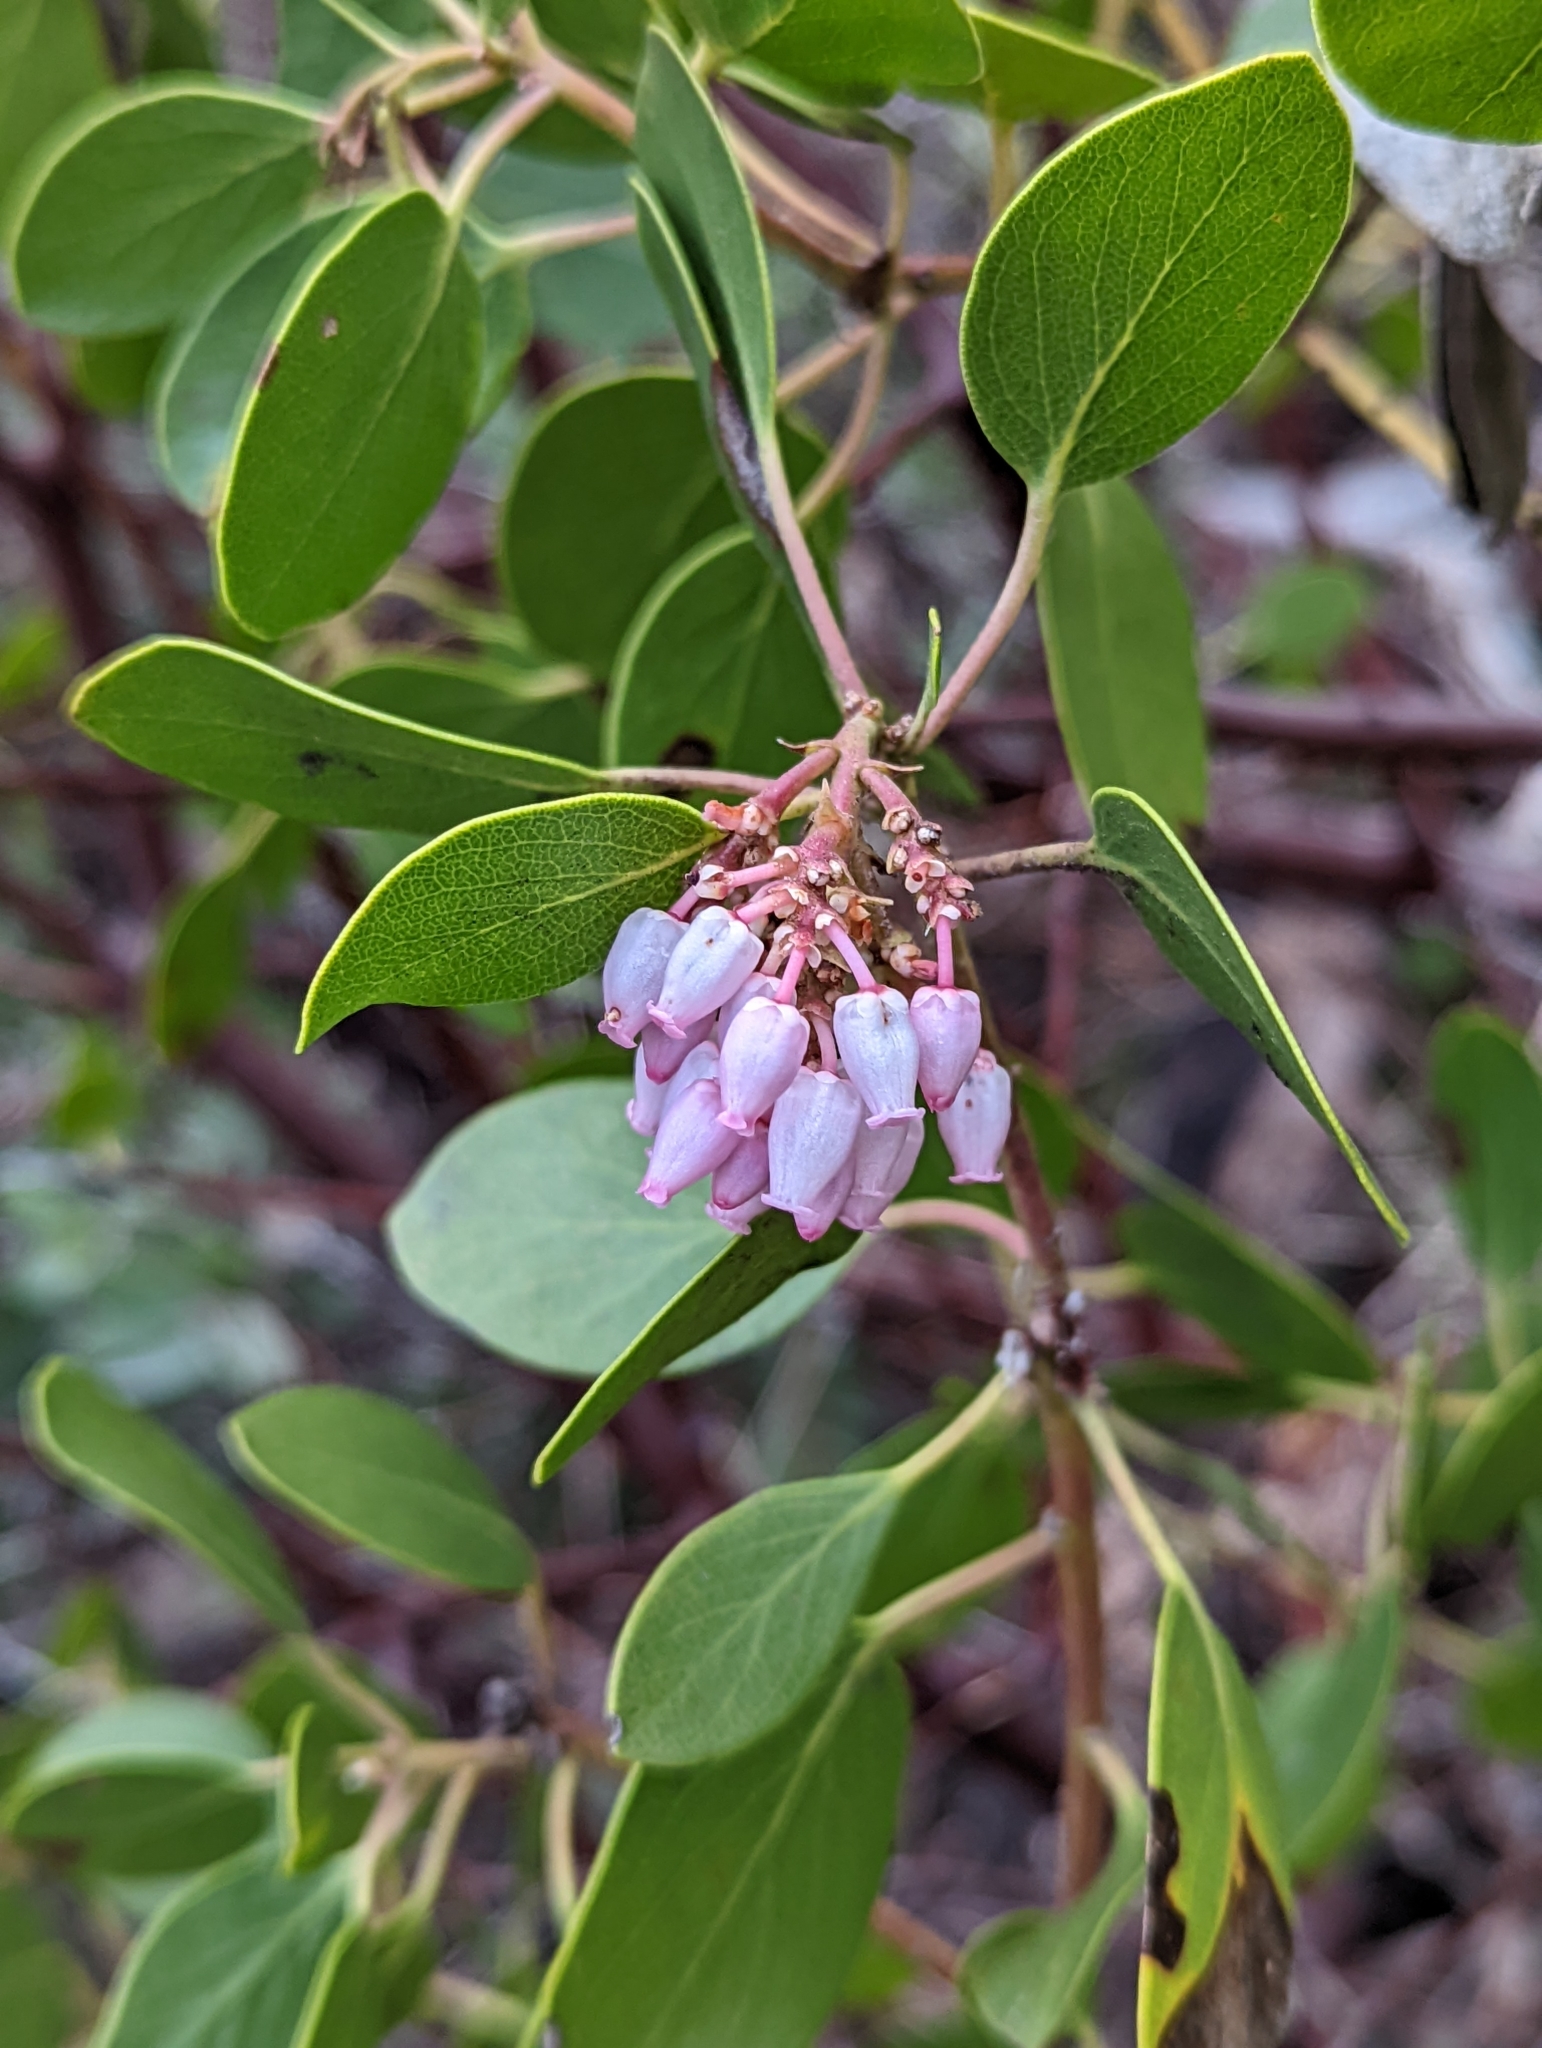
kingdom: Plantae
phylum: Tracheophyta
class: Magnoliopsida
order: Ericales
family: Ericaceae
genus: Arctostaphylos
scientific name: Arctostaphylos patula
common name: Green-leaf manzanita
